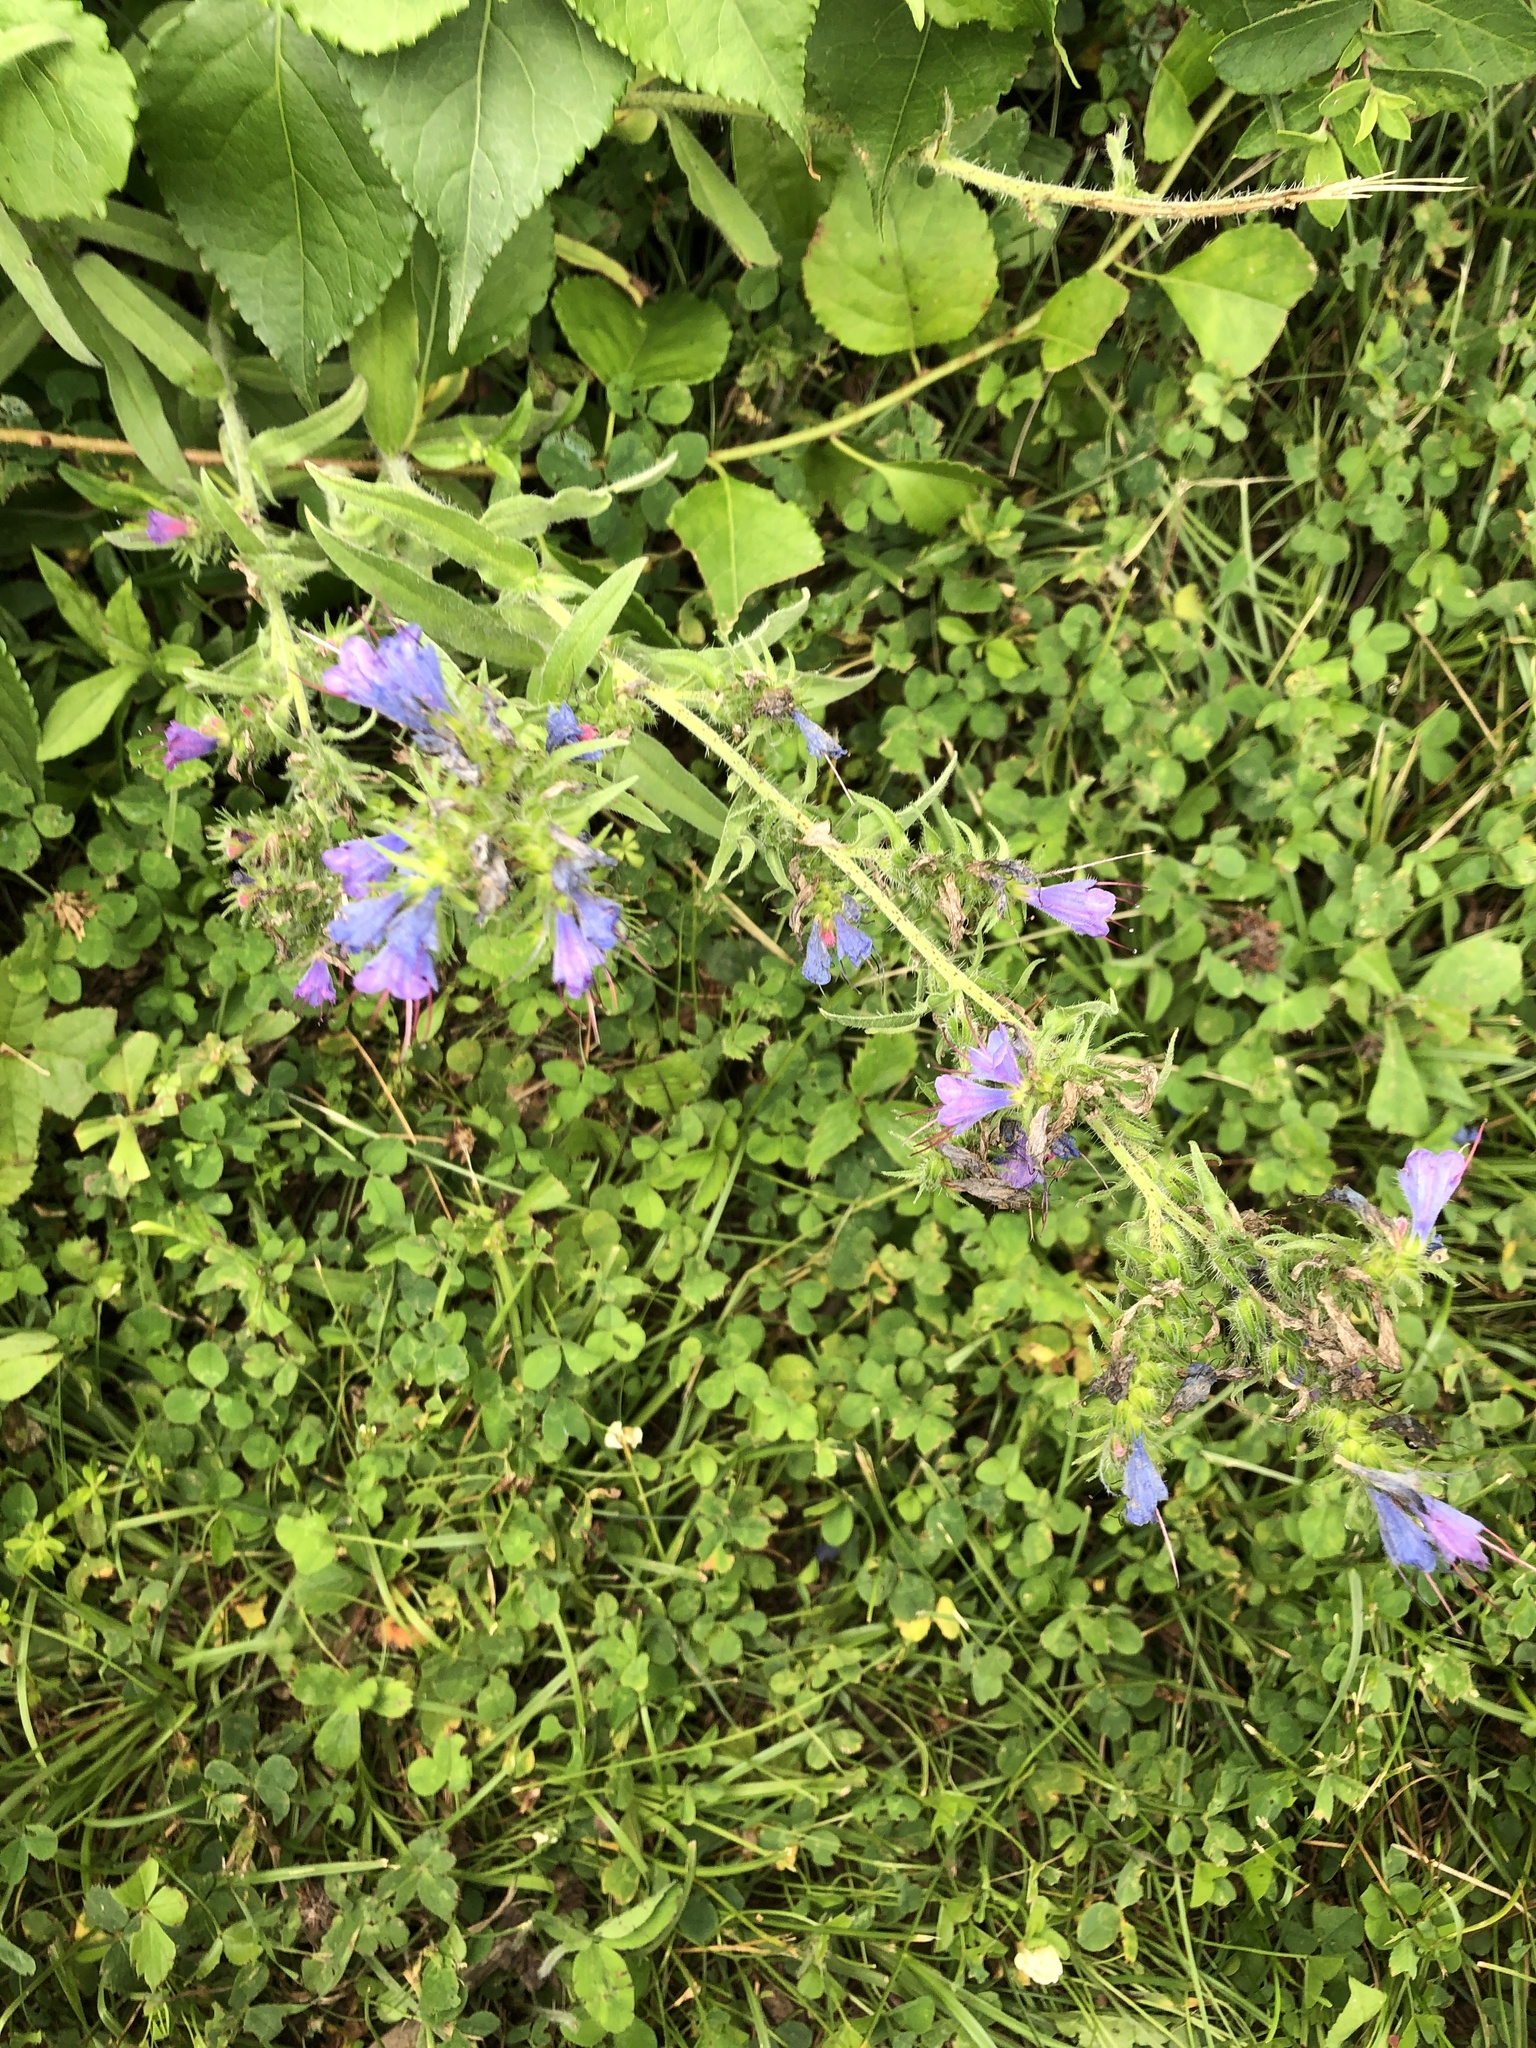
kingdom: Plantae
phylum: Tracheophyta
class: Magnoliopsida
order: Boraginales
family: Boraginaceae
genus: Echium
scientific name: Echium vulgare
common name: Common viper's bugloss
